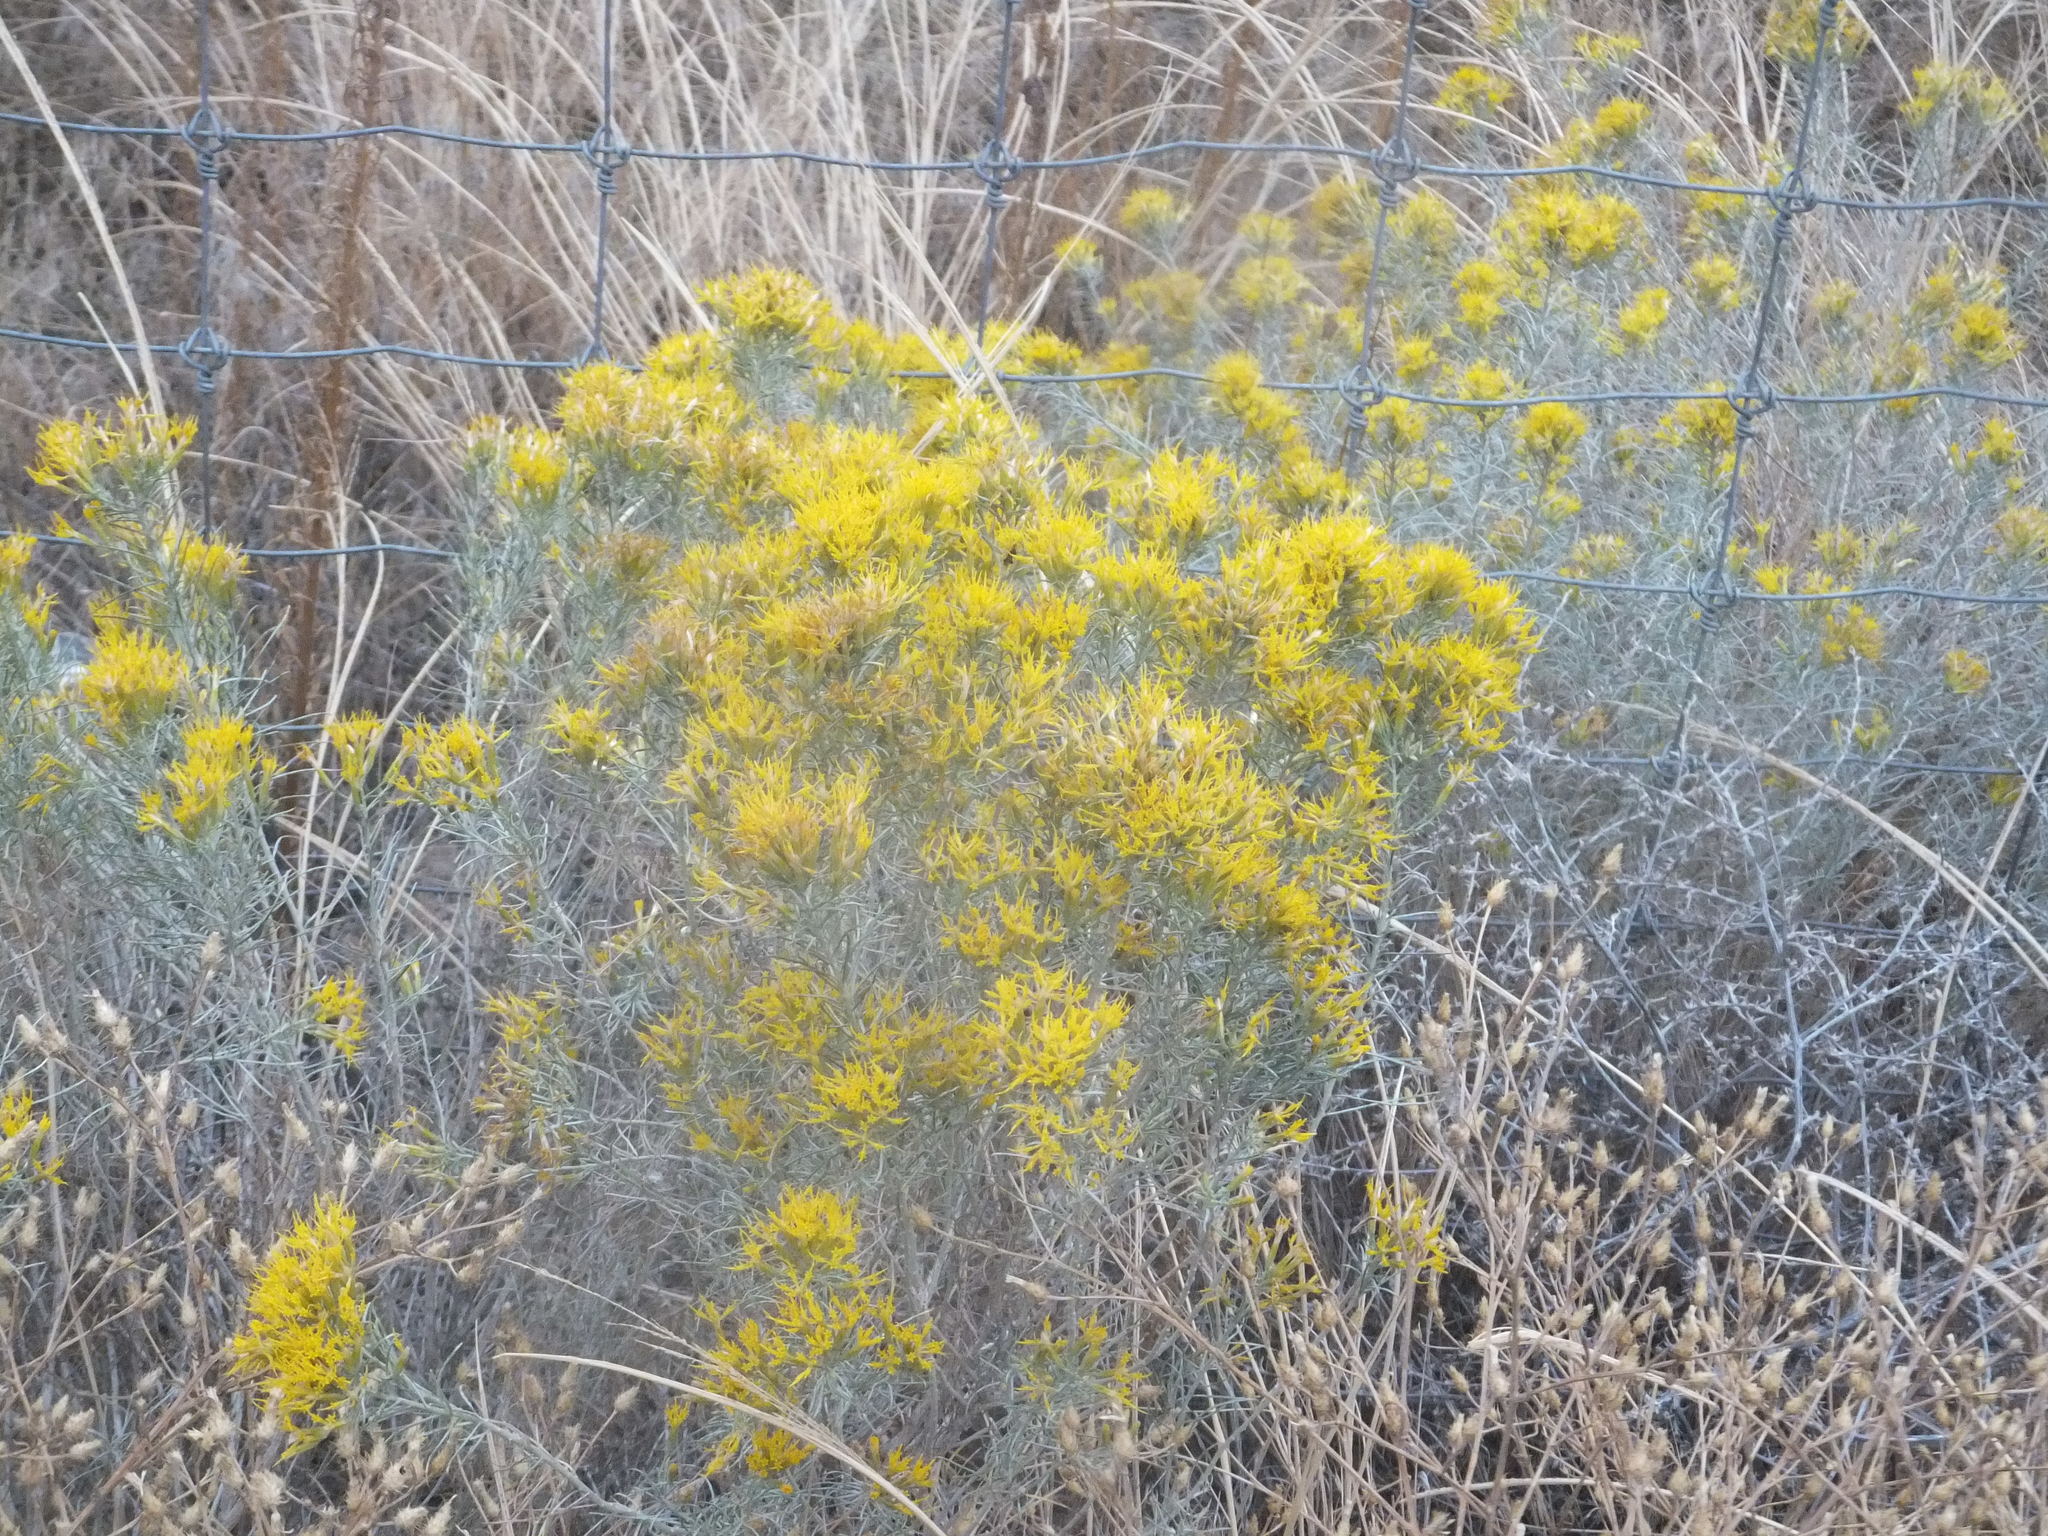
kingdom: Plantae
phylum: Tracheophyta
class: Magnoliopsida
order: Asterales
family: Asteraceae
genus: Ericameria
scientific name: Ericameria nauseosa
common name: Rubber rabbitbrush
